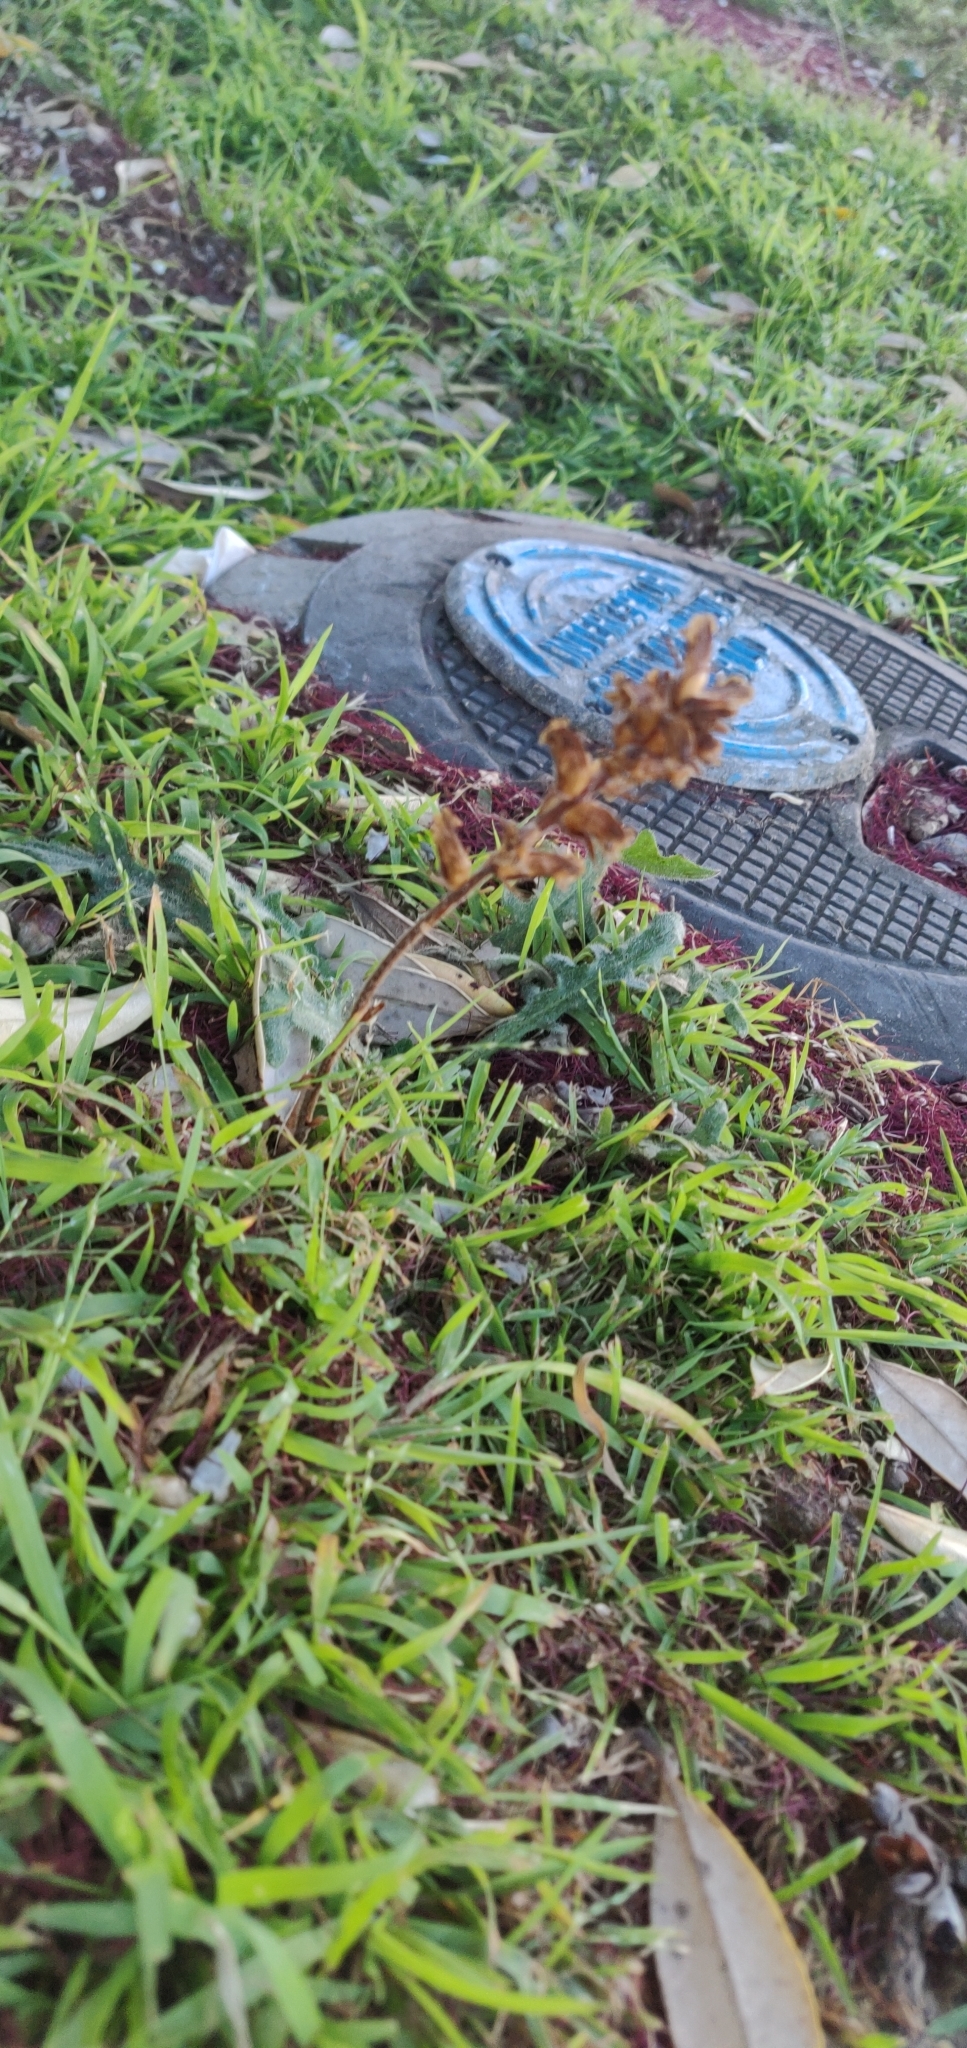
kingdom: Plantae
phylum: Tracheophyta
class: Magnoliopsida
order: Lamiales
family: Orobanchaceae
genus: Orobanche
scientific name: Orobanche minor
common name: Common broomrape
